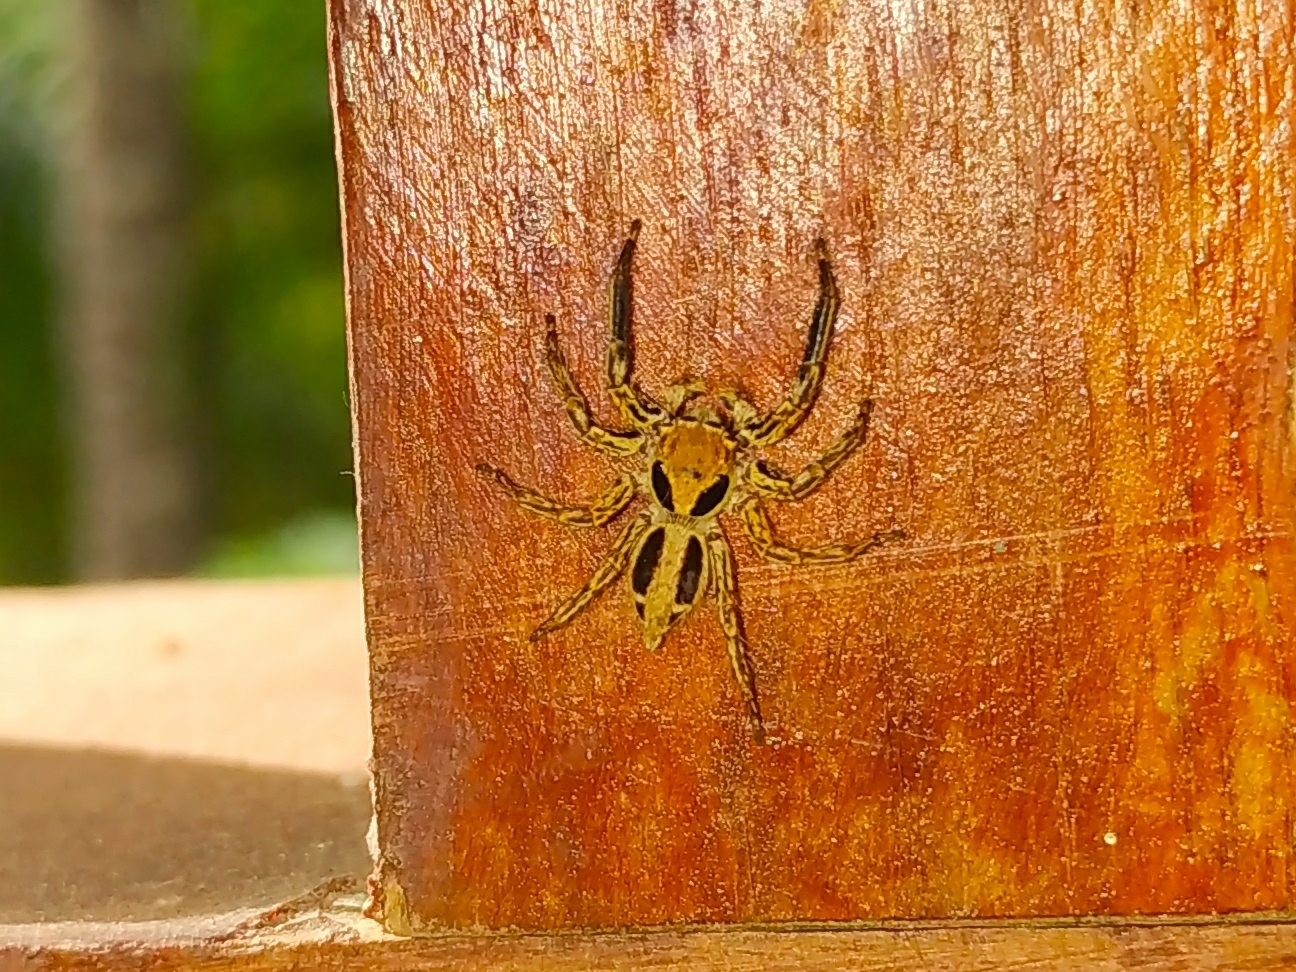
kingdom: Animalia
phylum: Arthropoda
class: Arachnida
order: Araneae
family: Salticidae
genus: Plexippus
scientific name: Plexippus petersi
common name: Jumping spider
